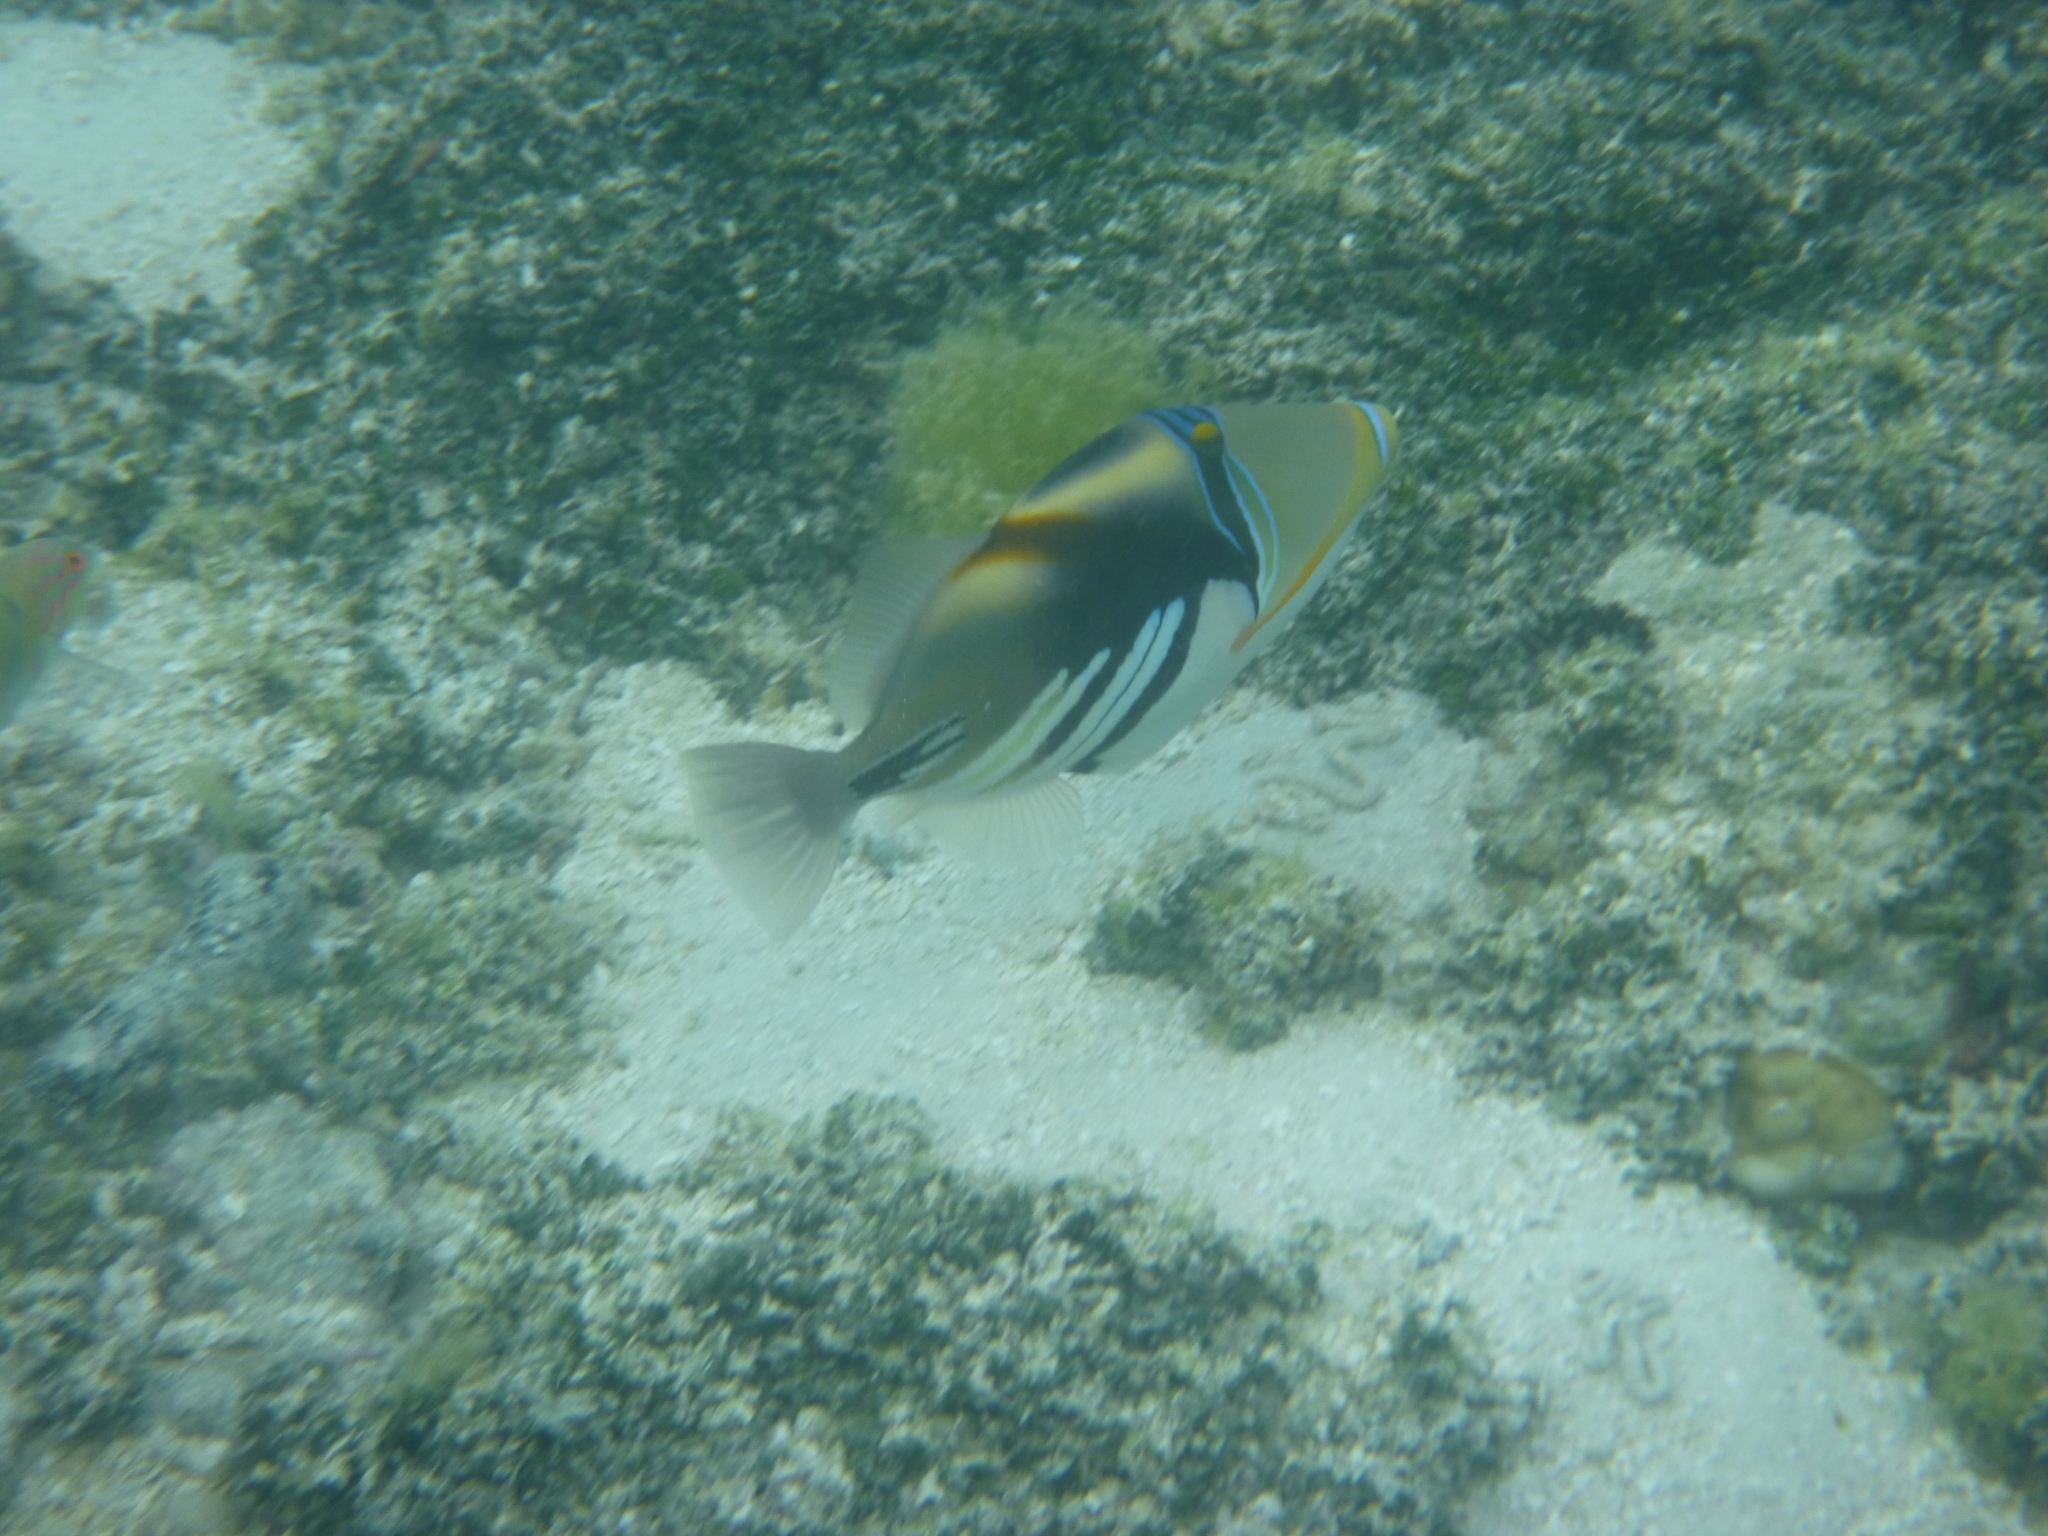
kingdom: Animalia
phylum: Chordata
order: Tetraodontiformes
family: Balistidae
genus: Rhinecanthus
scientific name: Rhinecanthus aculeatus
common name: White-banded triggerfish
